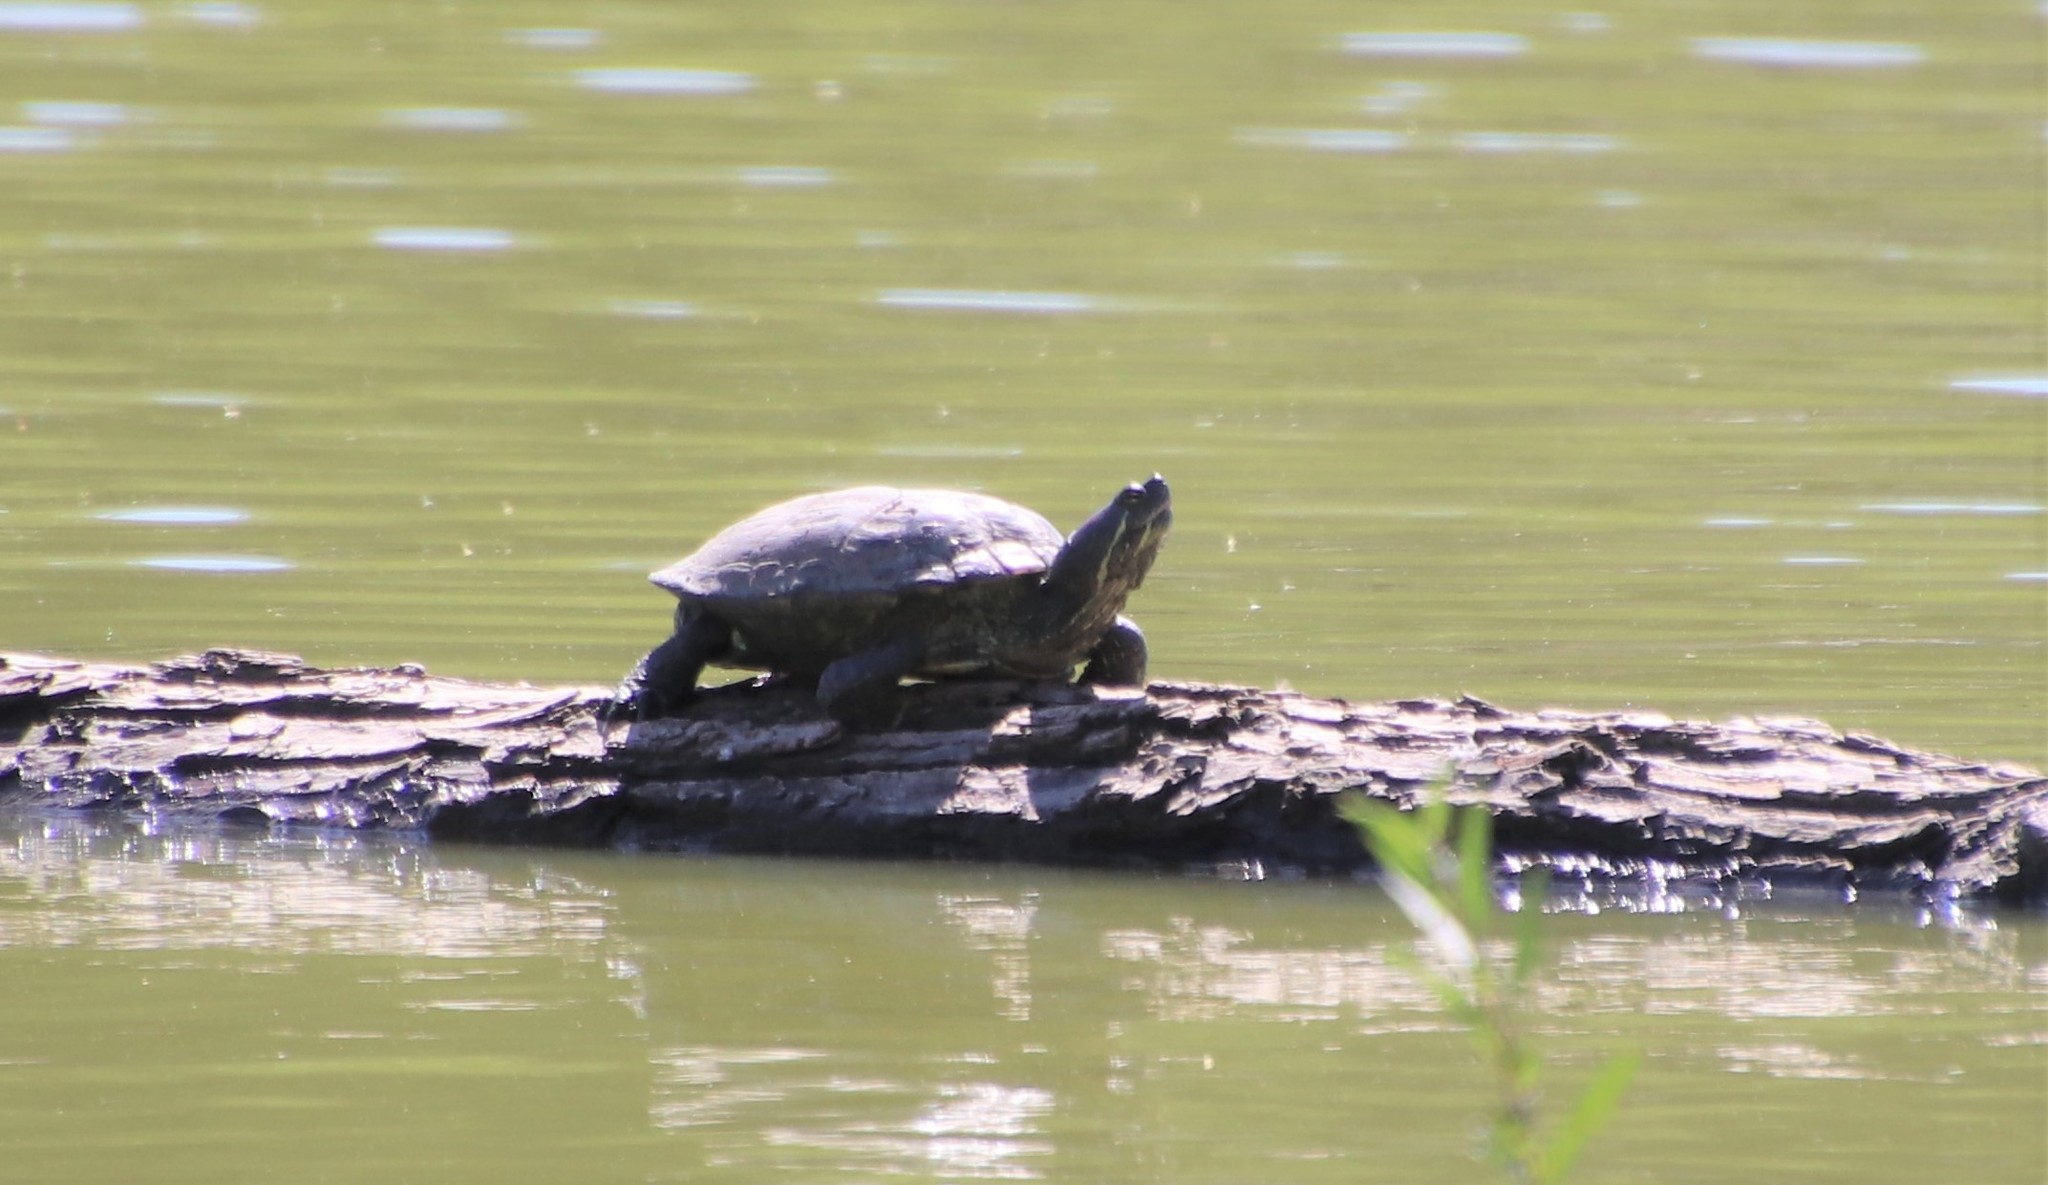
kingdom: Animalia
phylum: Chordata
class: Testudines
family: Emydidae
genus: Trachemys
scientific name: Trachemys scripta
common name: Slider
